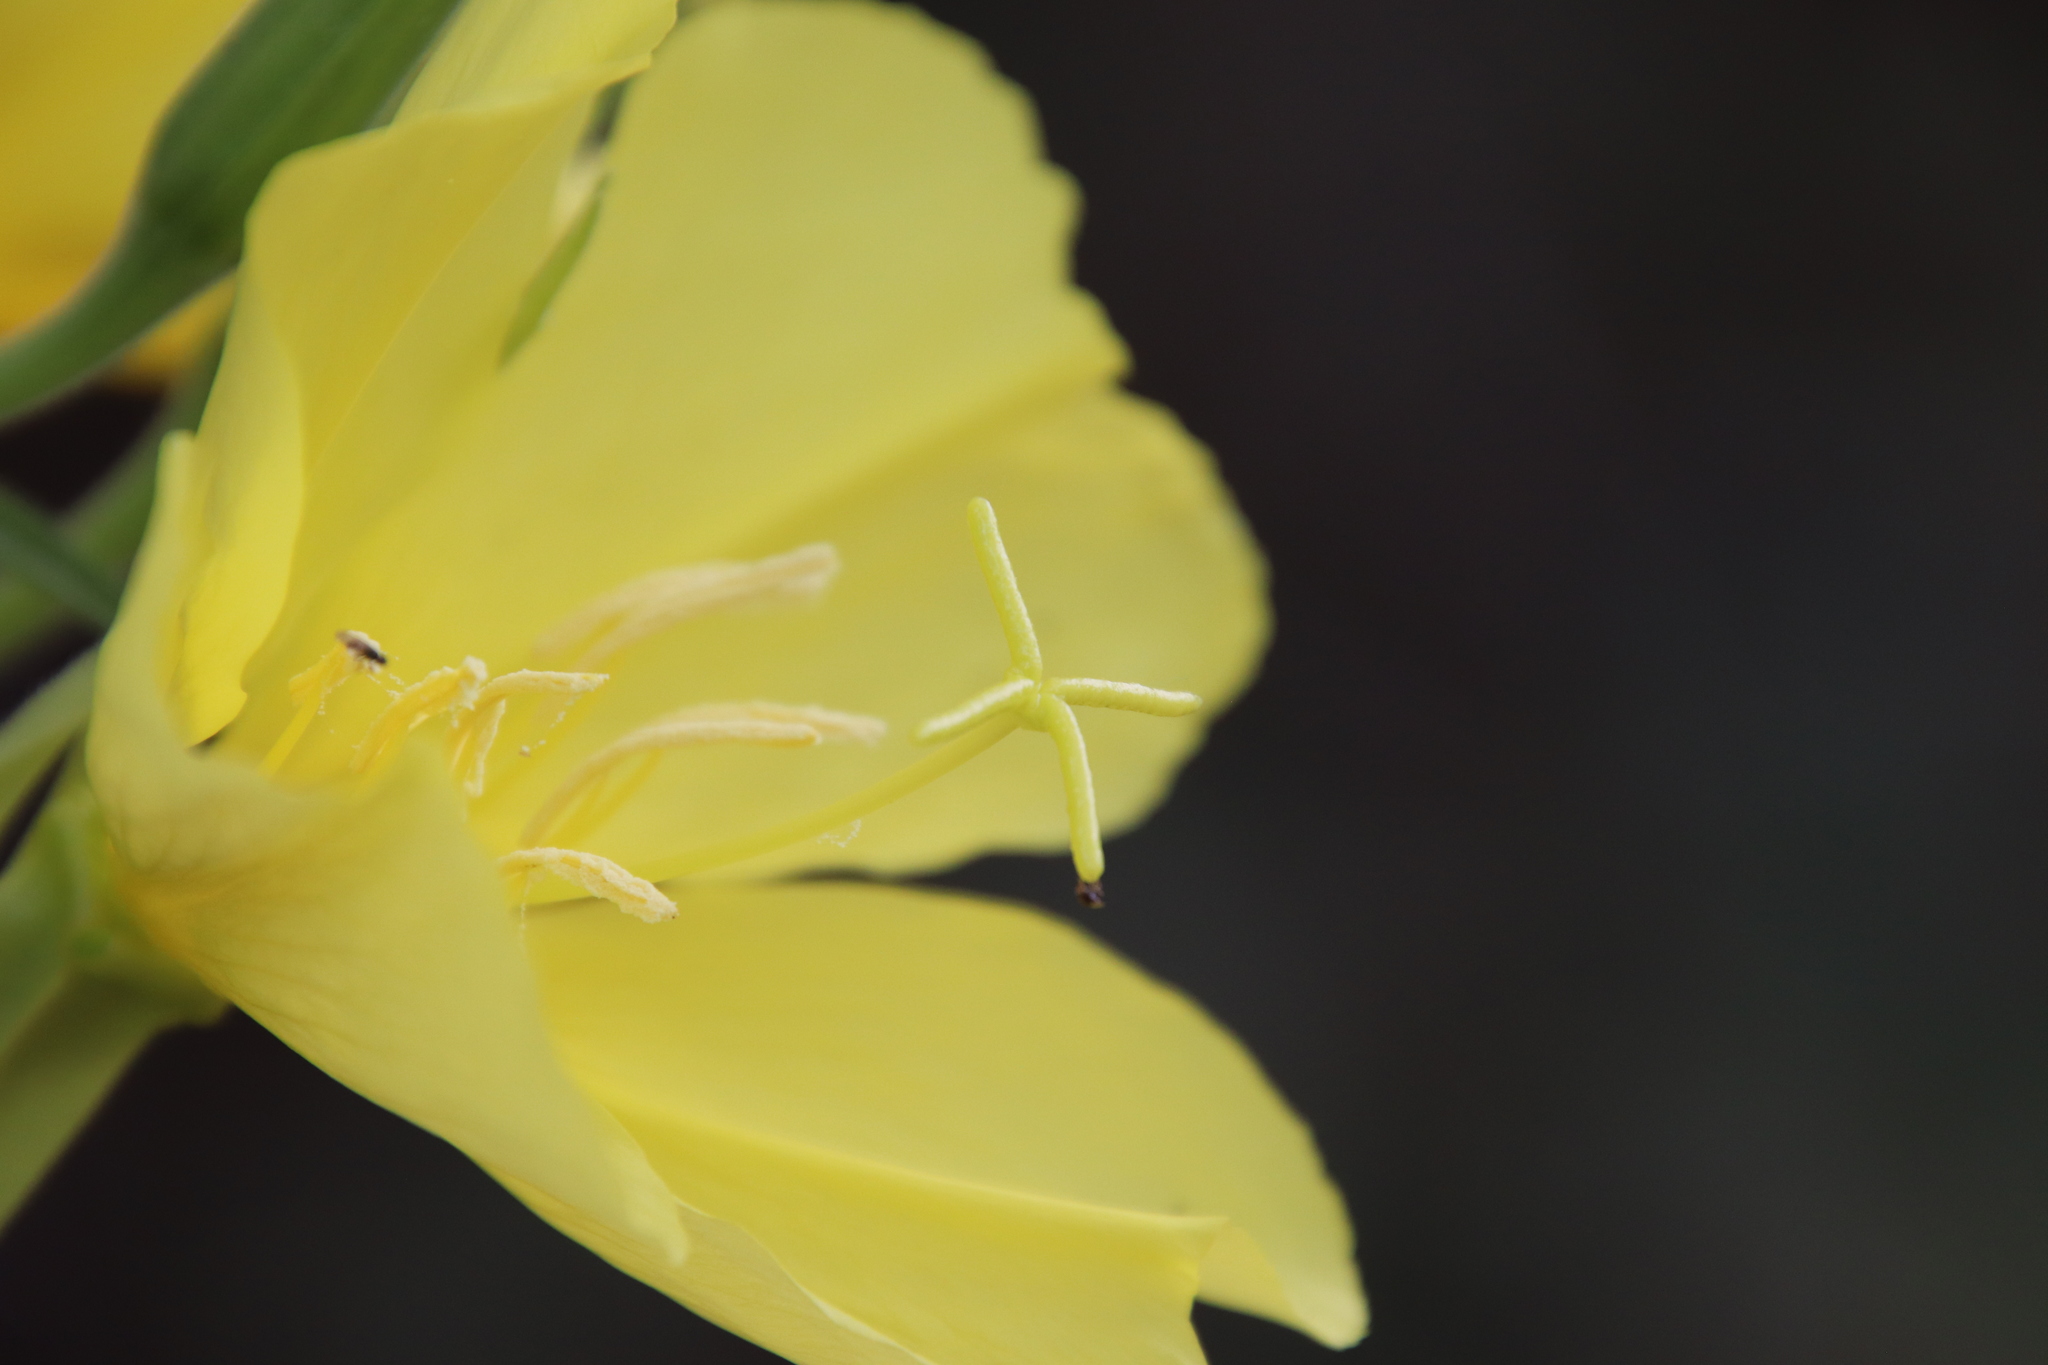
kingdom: Plantae
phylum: Tracheophyta
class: Magnoliopsida
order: Myrtales
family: Onagraceae
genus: Oenothera
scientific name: Oenothera elata
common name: Hooker's evening-primrose
